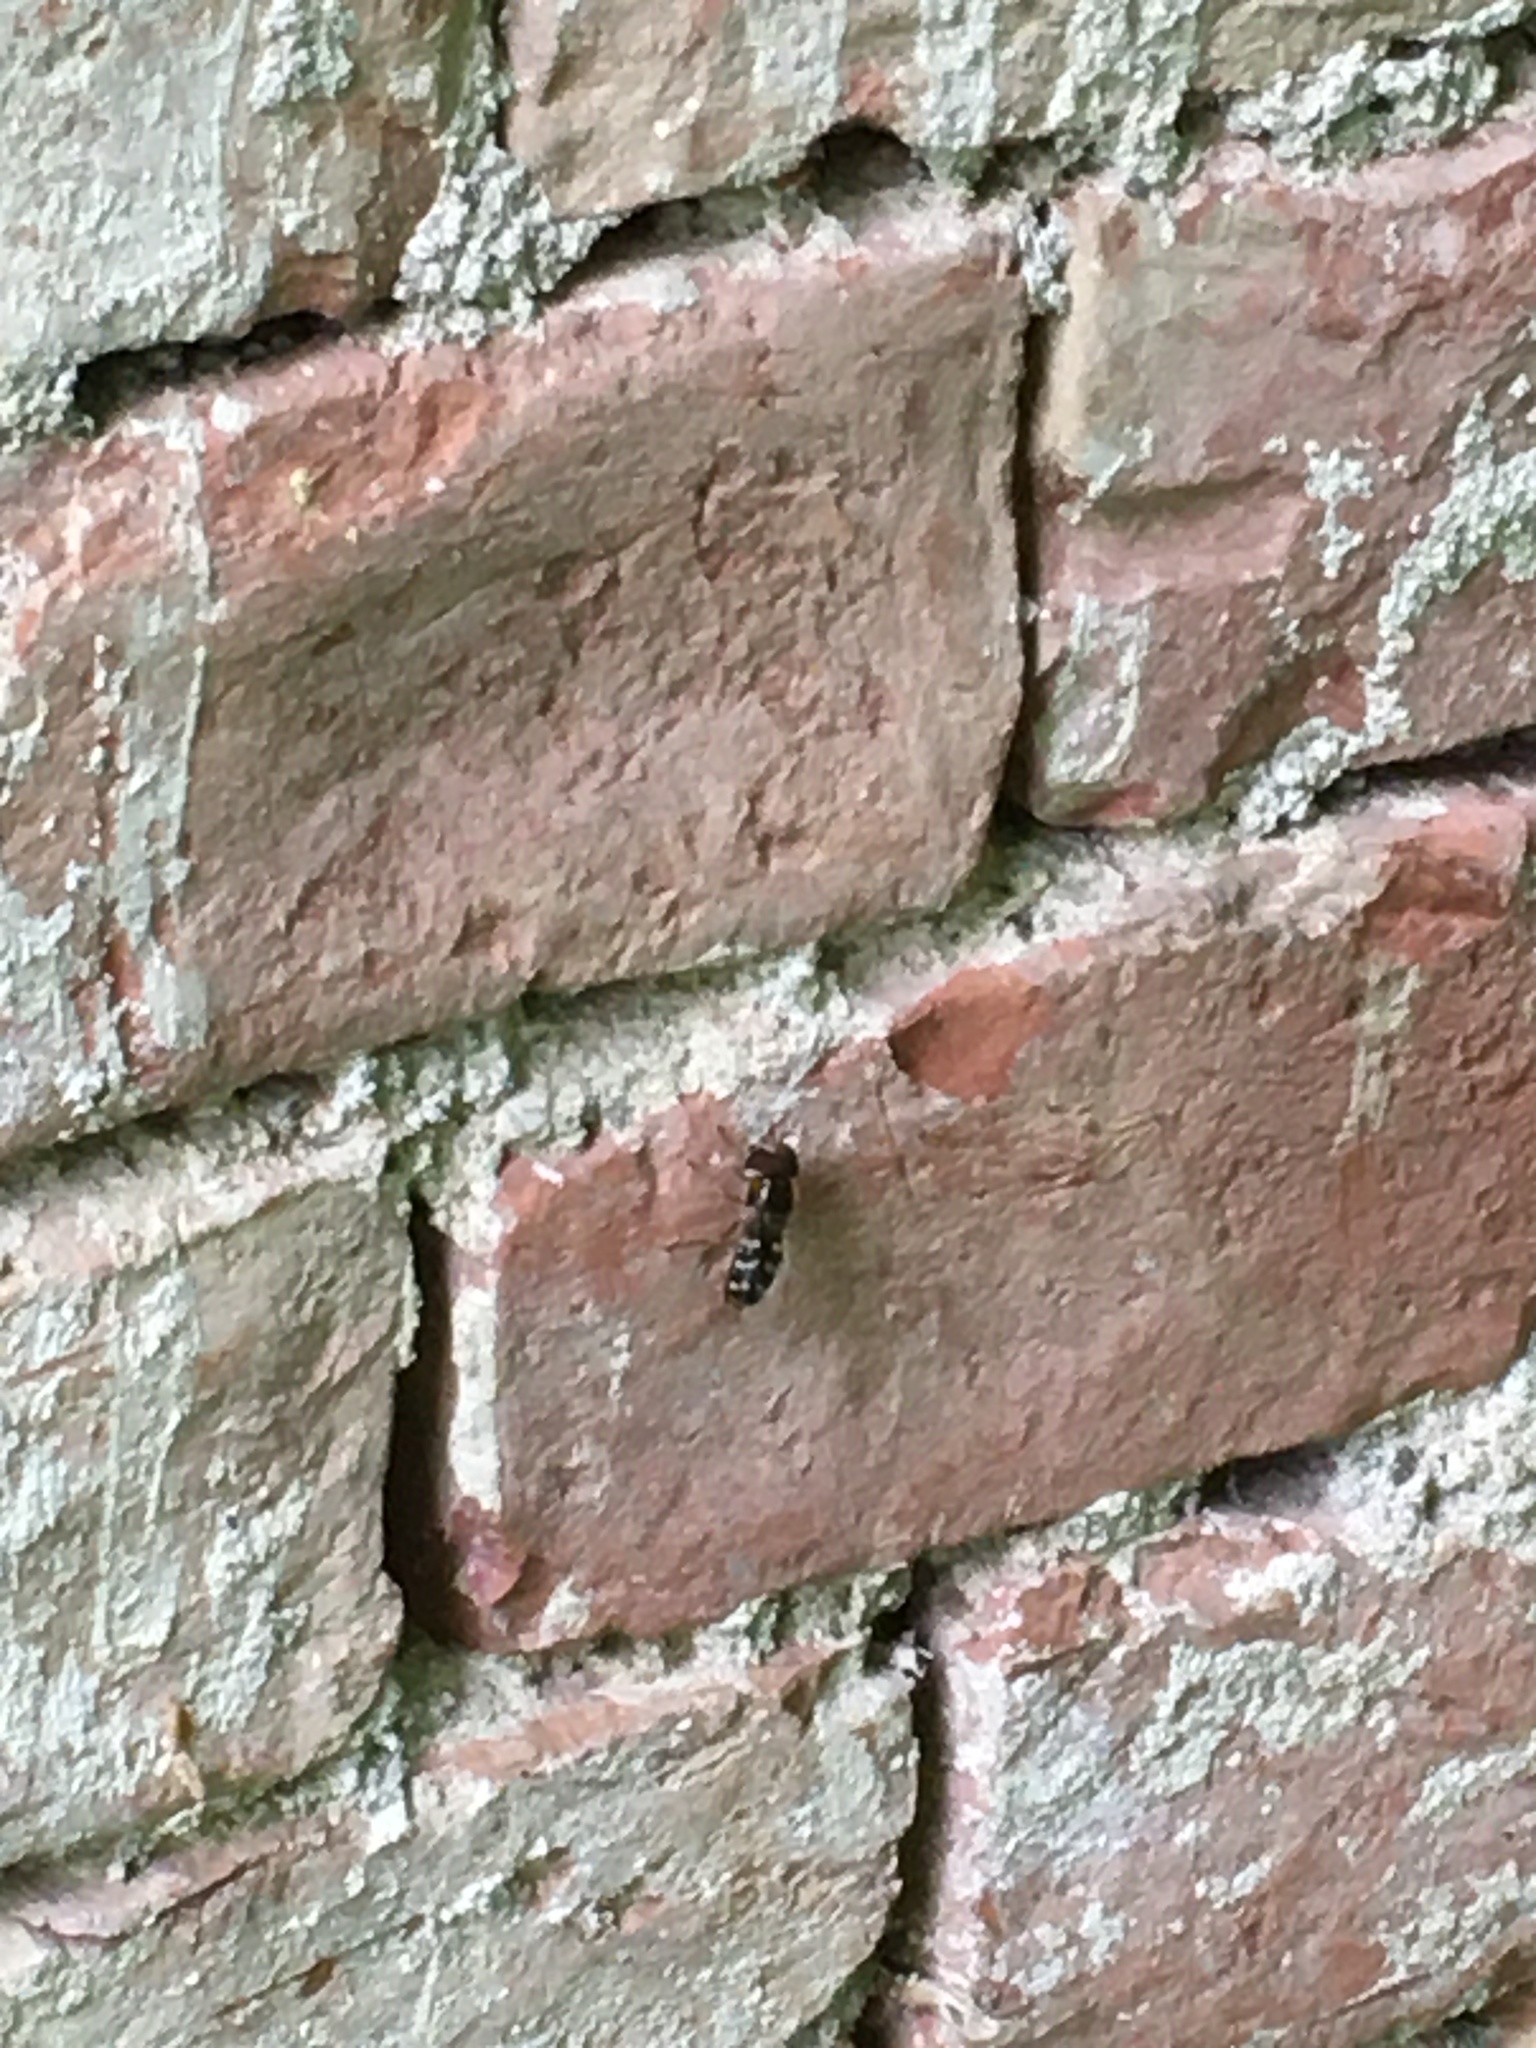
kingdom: Animalia
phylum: Arthropoda
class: Insecta
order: Diptera
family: Syrphidae
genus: Scaeva
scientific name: Scaeva pyrastri
